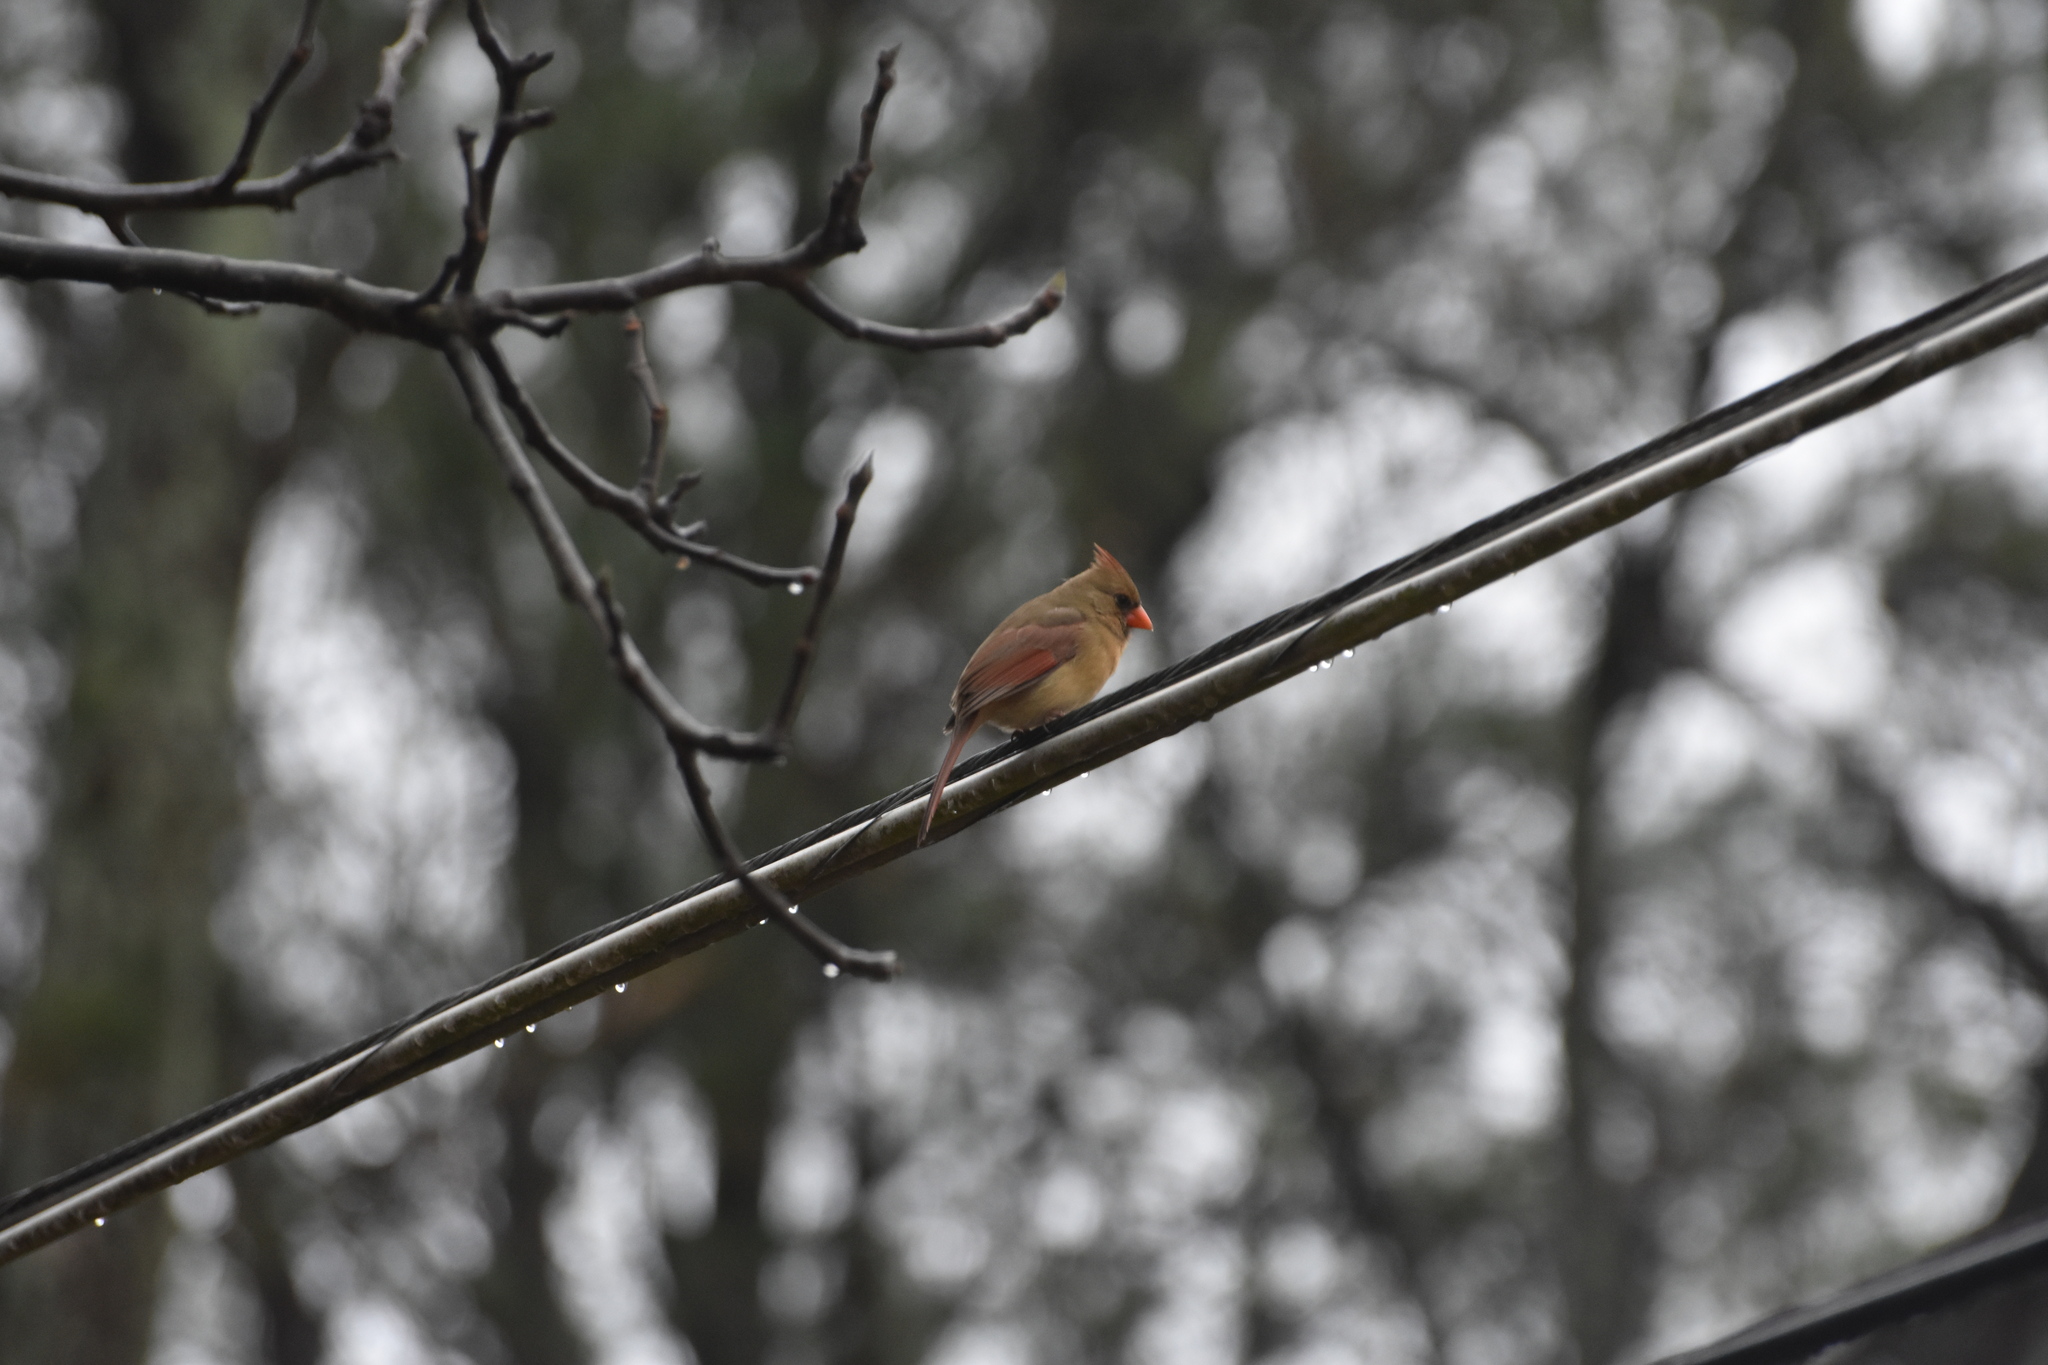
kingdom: Animalia
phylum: Chordata
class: Aves
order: Passeriformes
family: Cardinalidae
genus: Cardinalis
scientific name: Cardinalis cardinalis
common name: Northern cardinal
